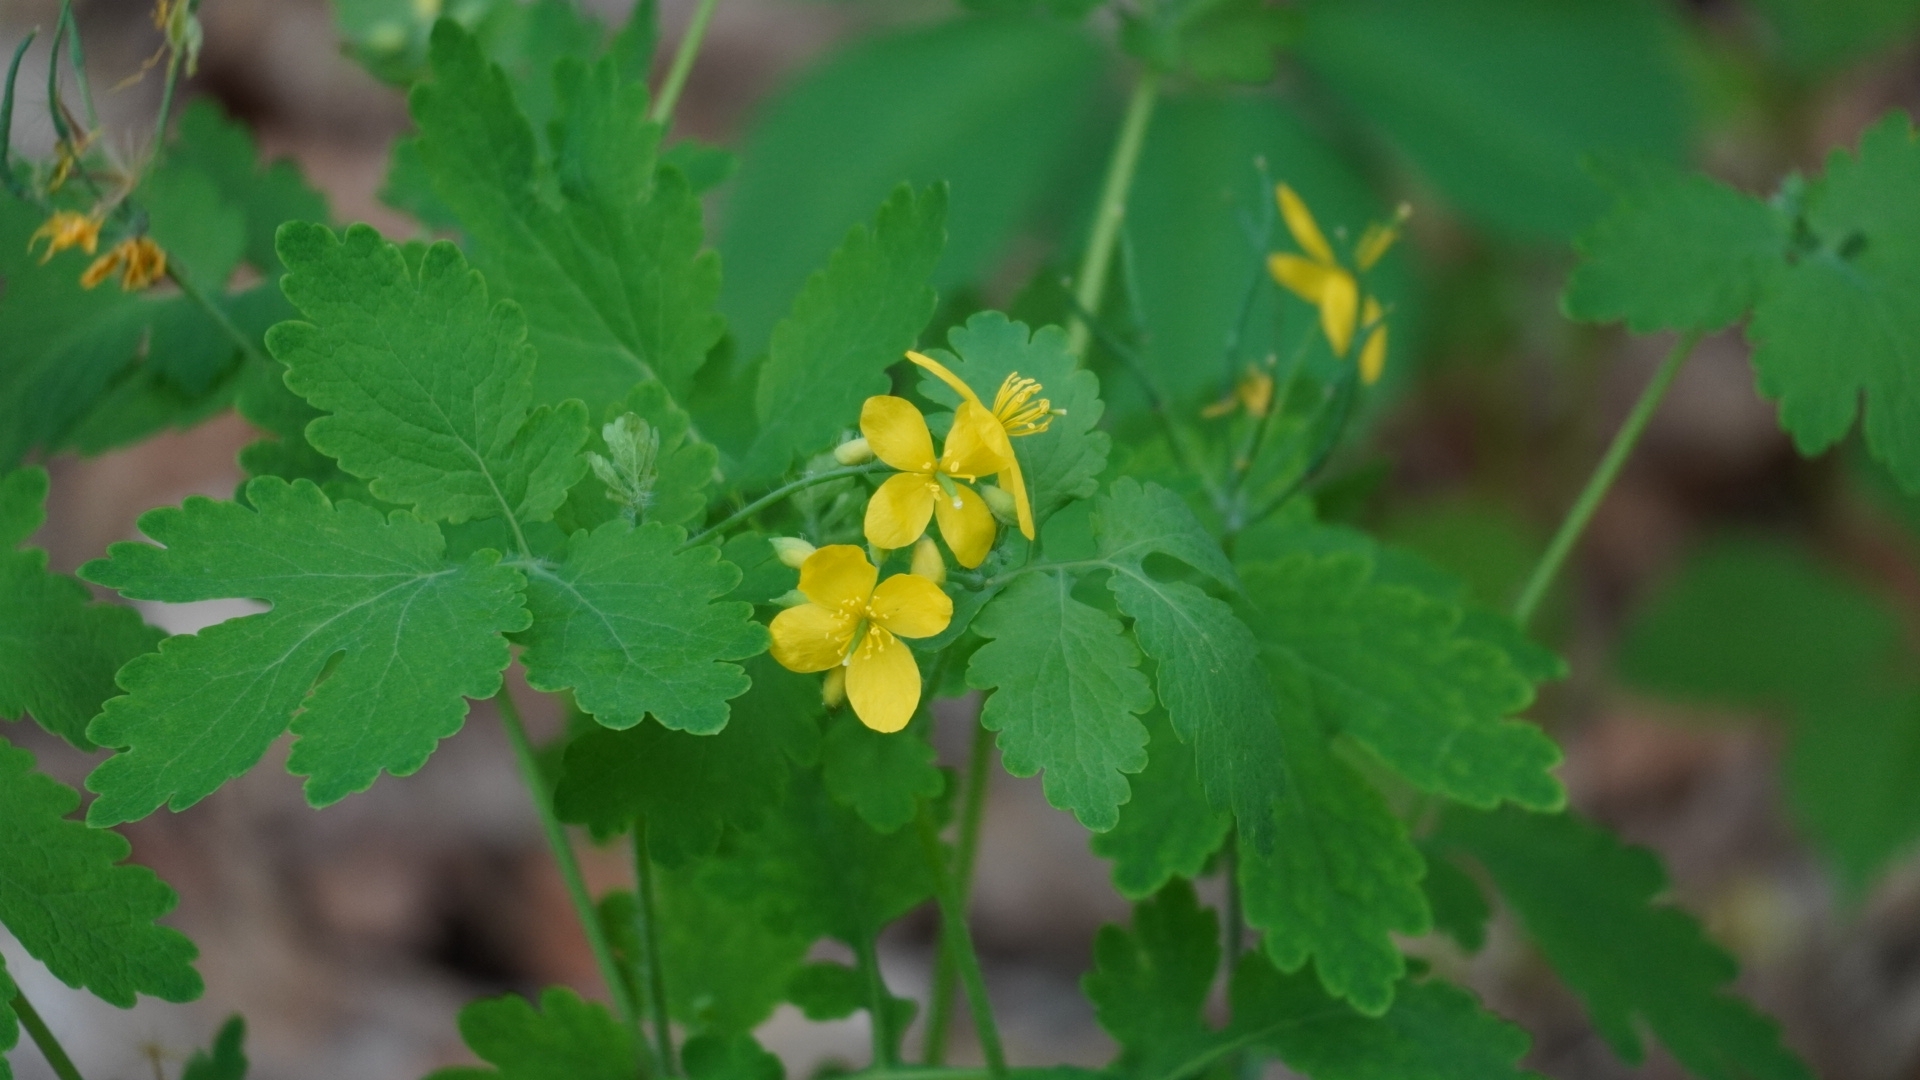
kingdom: Plantae
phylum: Tracheophyta
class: Magnoliopsida
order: Ranunculales
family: Papaveraceae
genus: Chelidonium
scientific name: Chelidonium majus
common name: Greater celandine
